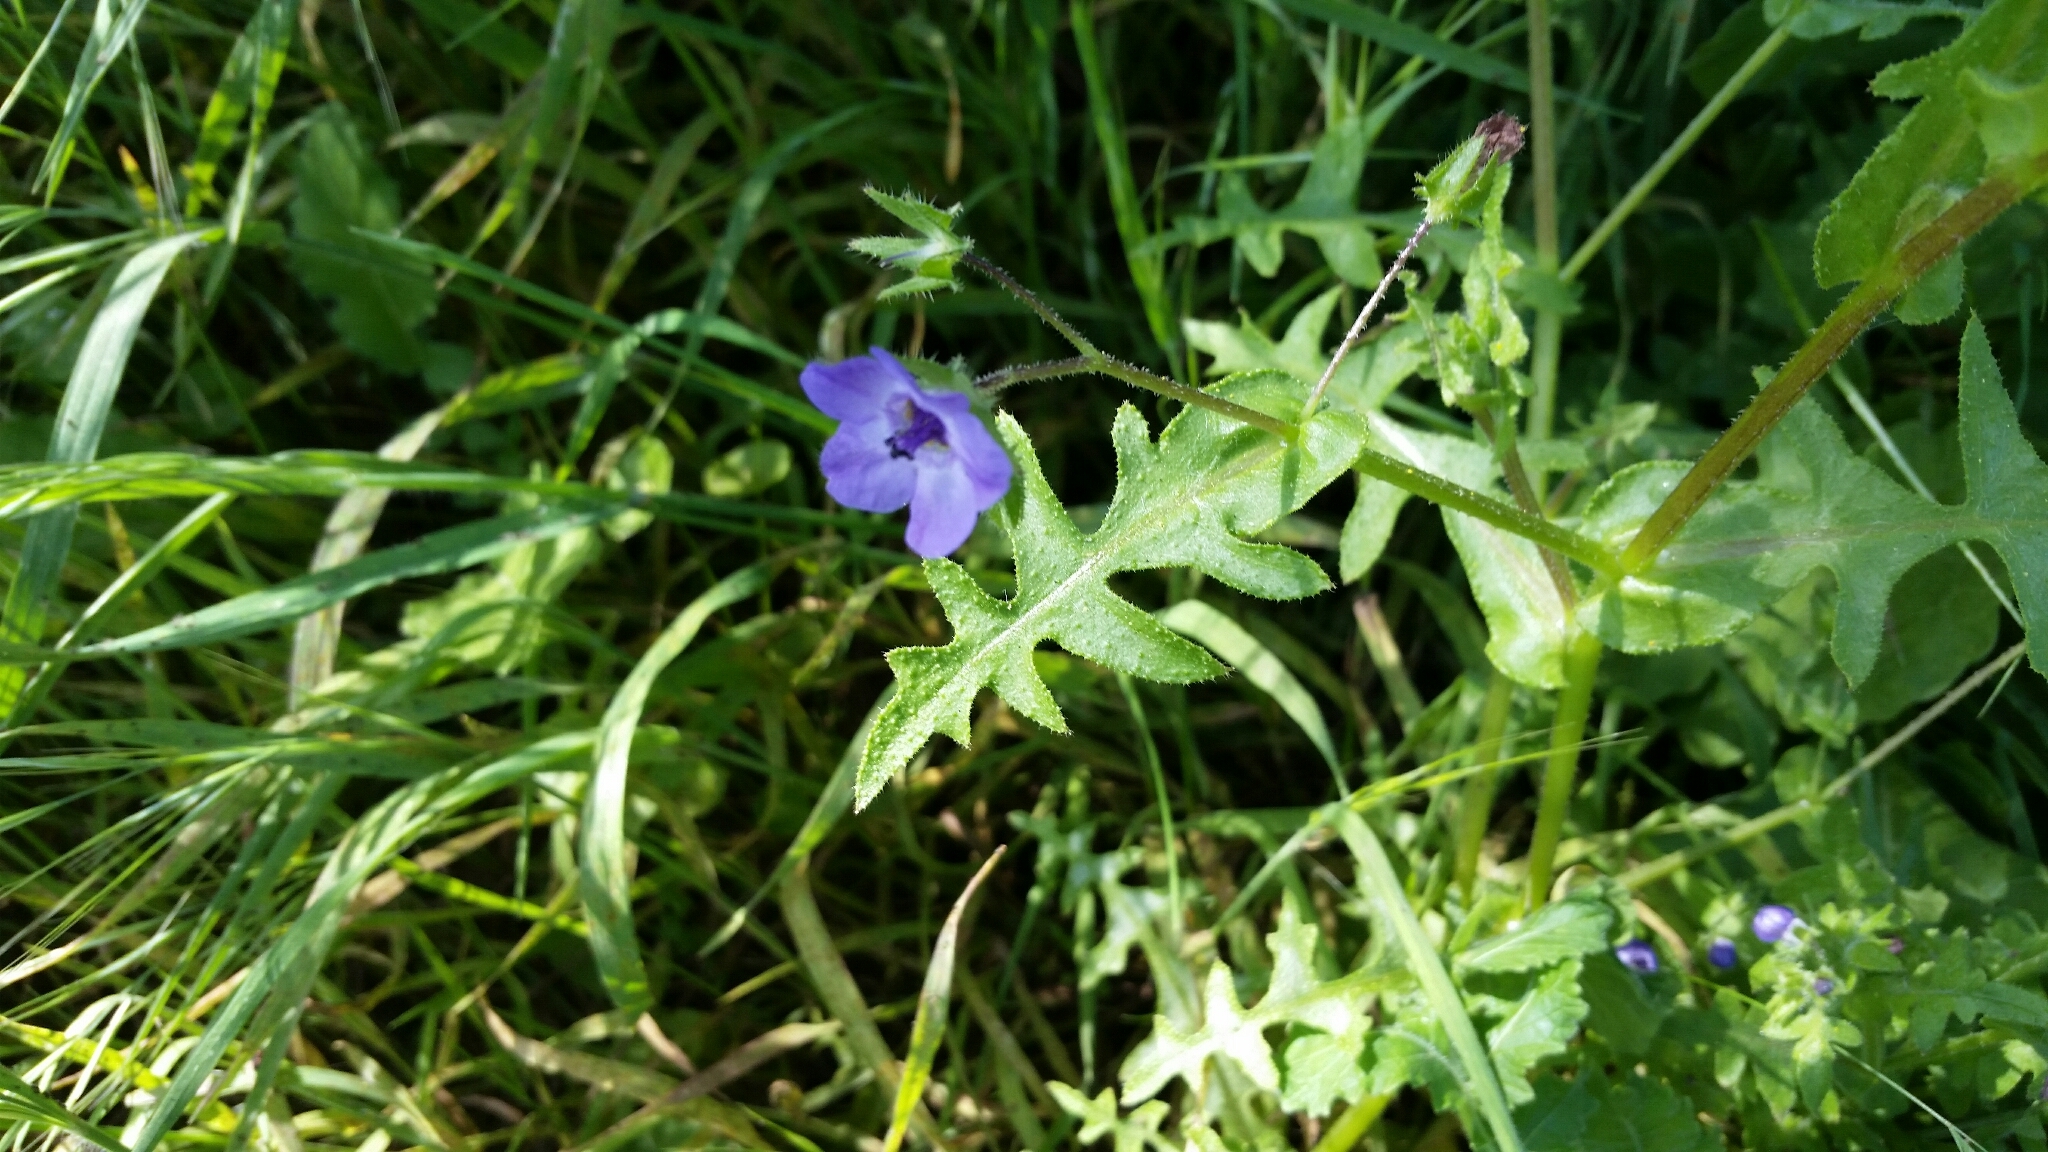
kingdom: Plantae
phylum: Tracheophyta
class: Magnoliopsida
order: Boraginales
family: Hydrophyllaceae
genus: Pholistoma
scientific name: Pholistoma auritum
